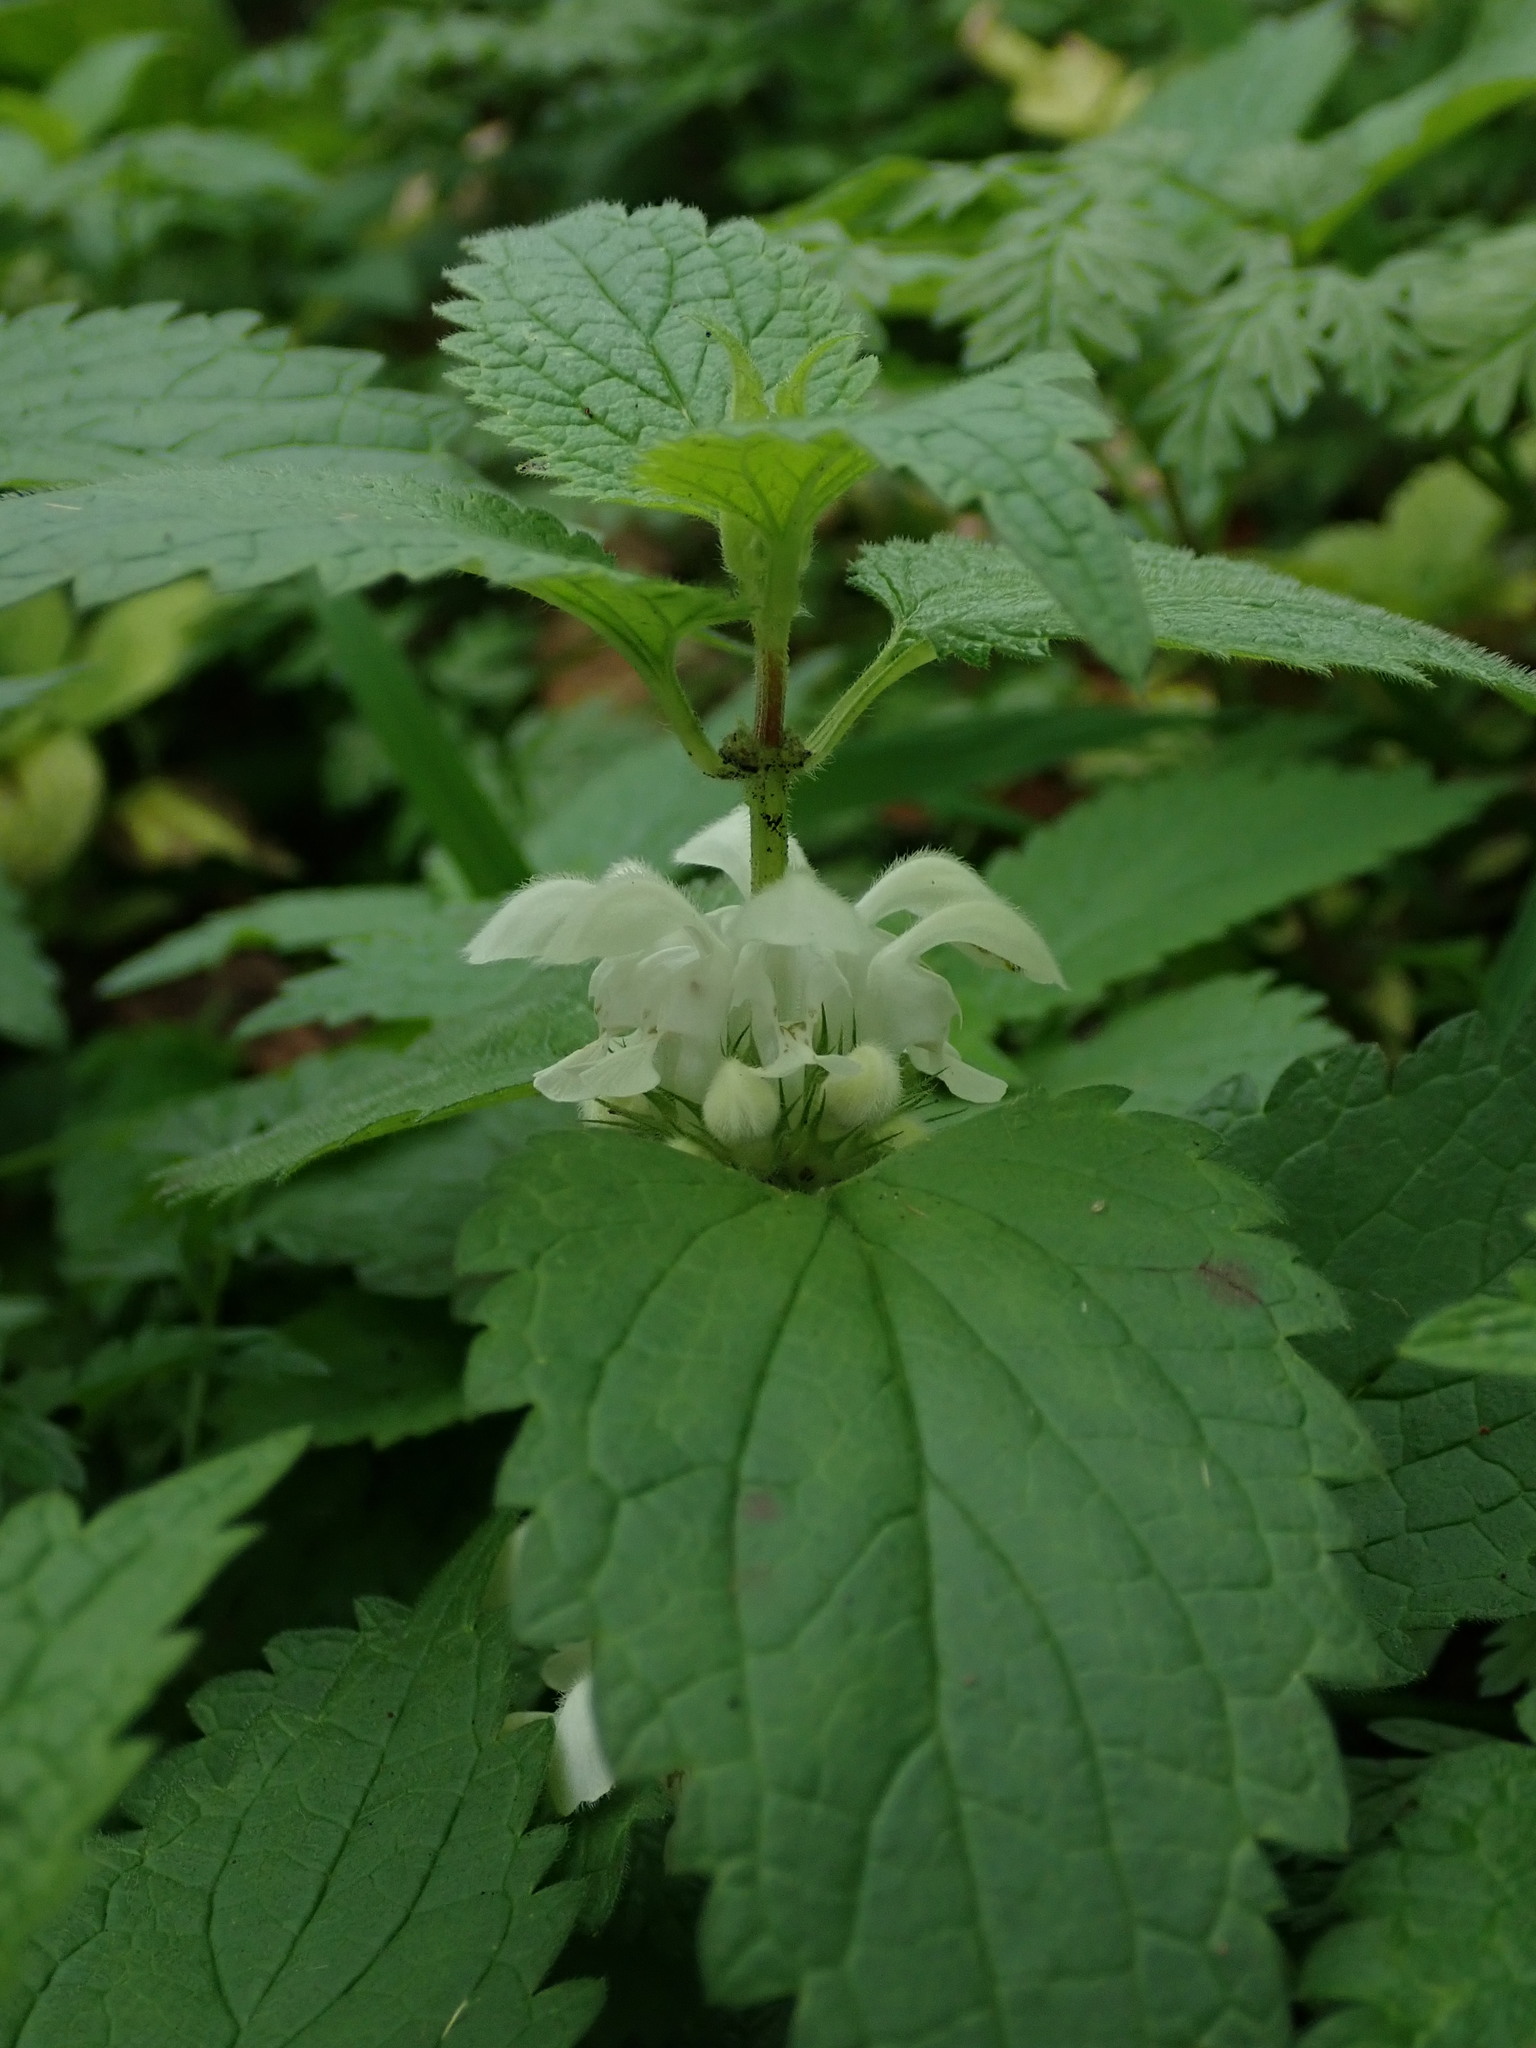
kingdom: Plantae
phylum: Tracheophyta
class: Magnoliopsida
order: Lamiales
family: Lamiaceae
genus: Lamium
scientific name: Lamium album
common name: White dead-nettle
